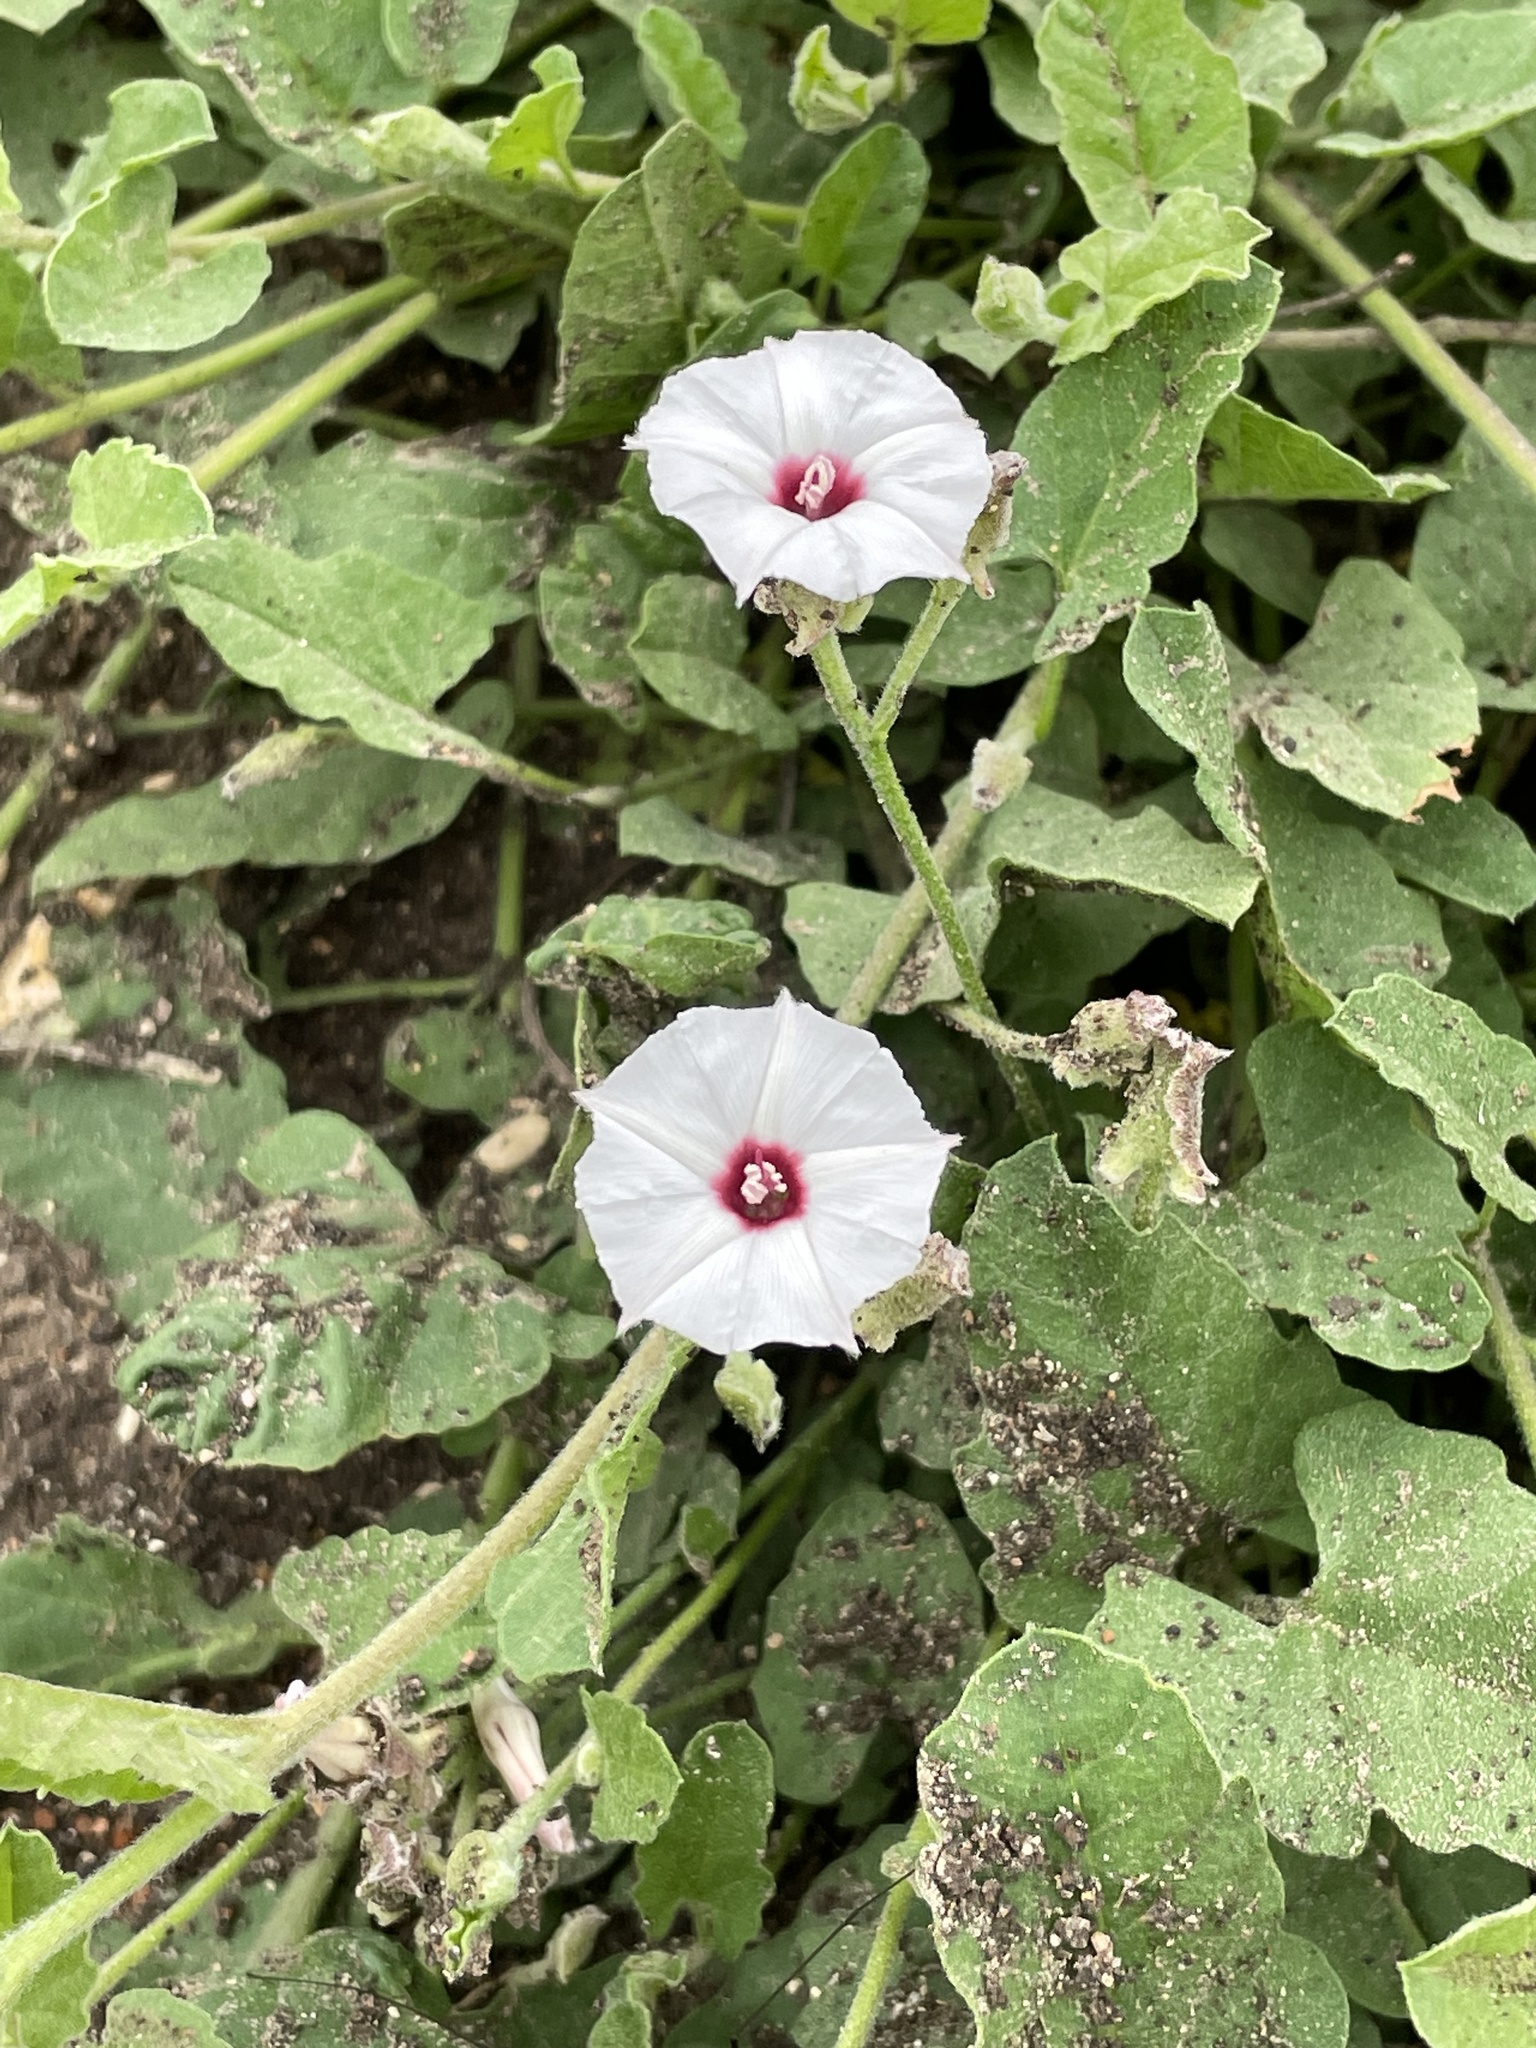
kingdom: Plantae
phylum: Tracheophyta
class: Magnoliopsida
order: Solanales
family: Convolvulaceae
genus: Convolvulus
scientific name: Convolvulus equitans
